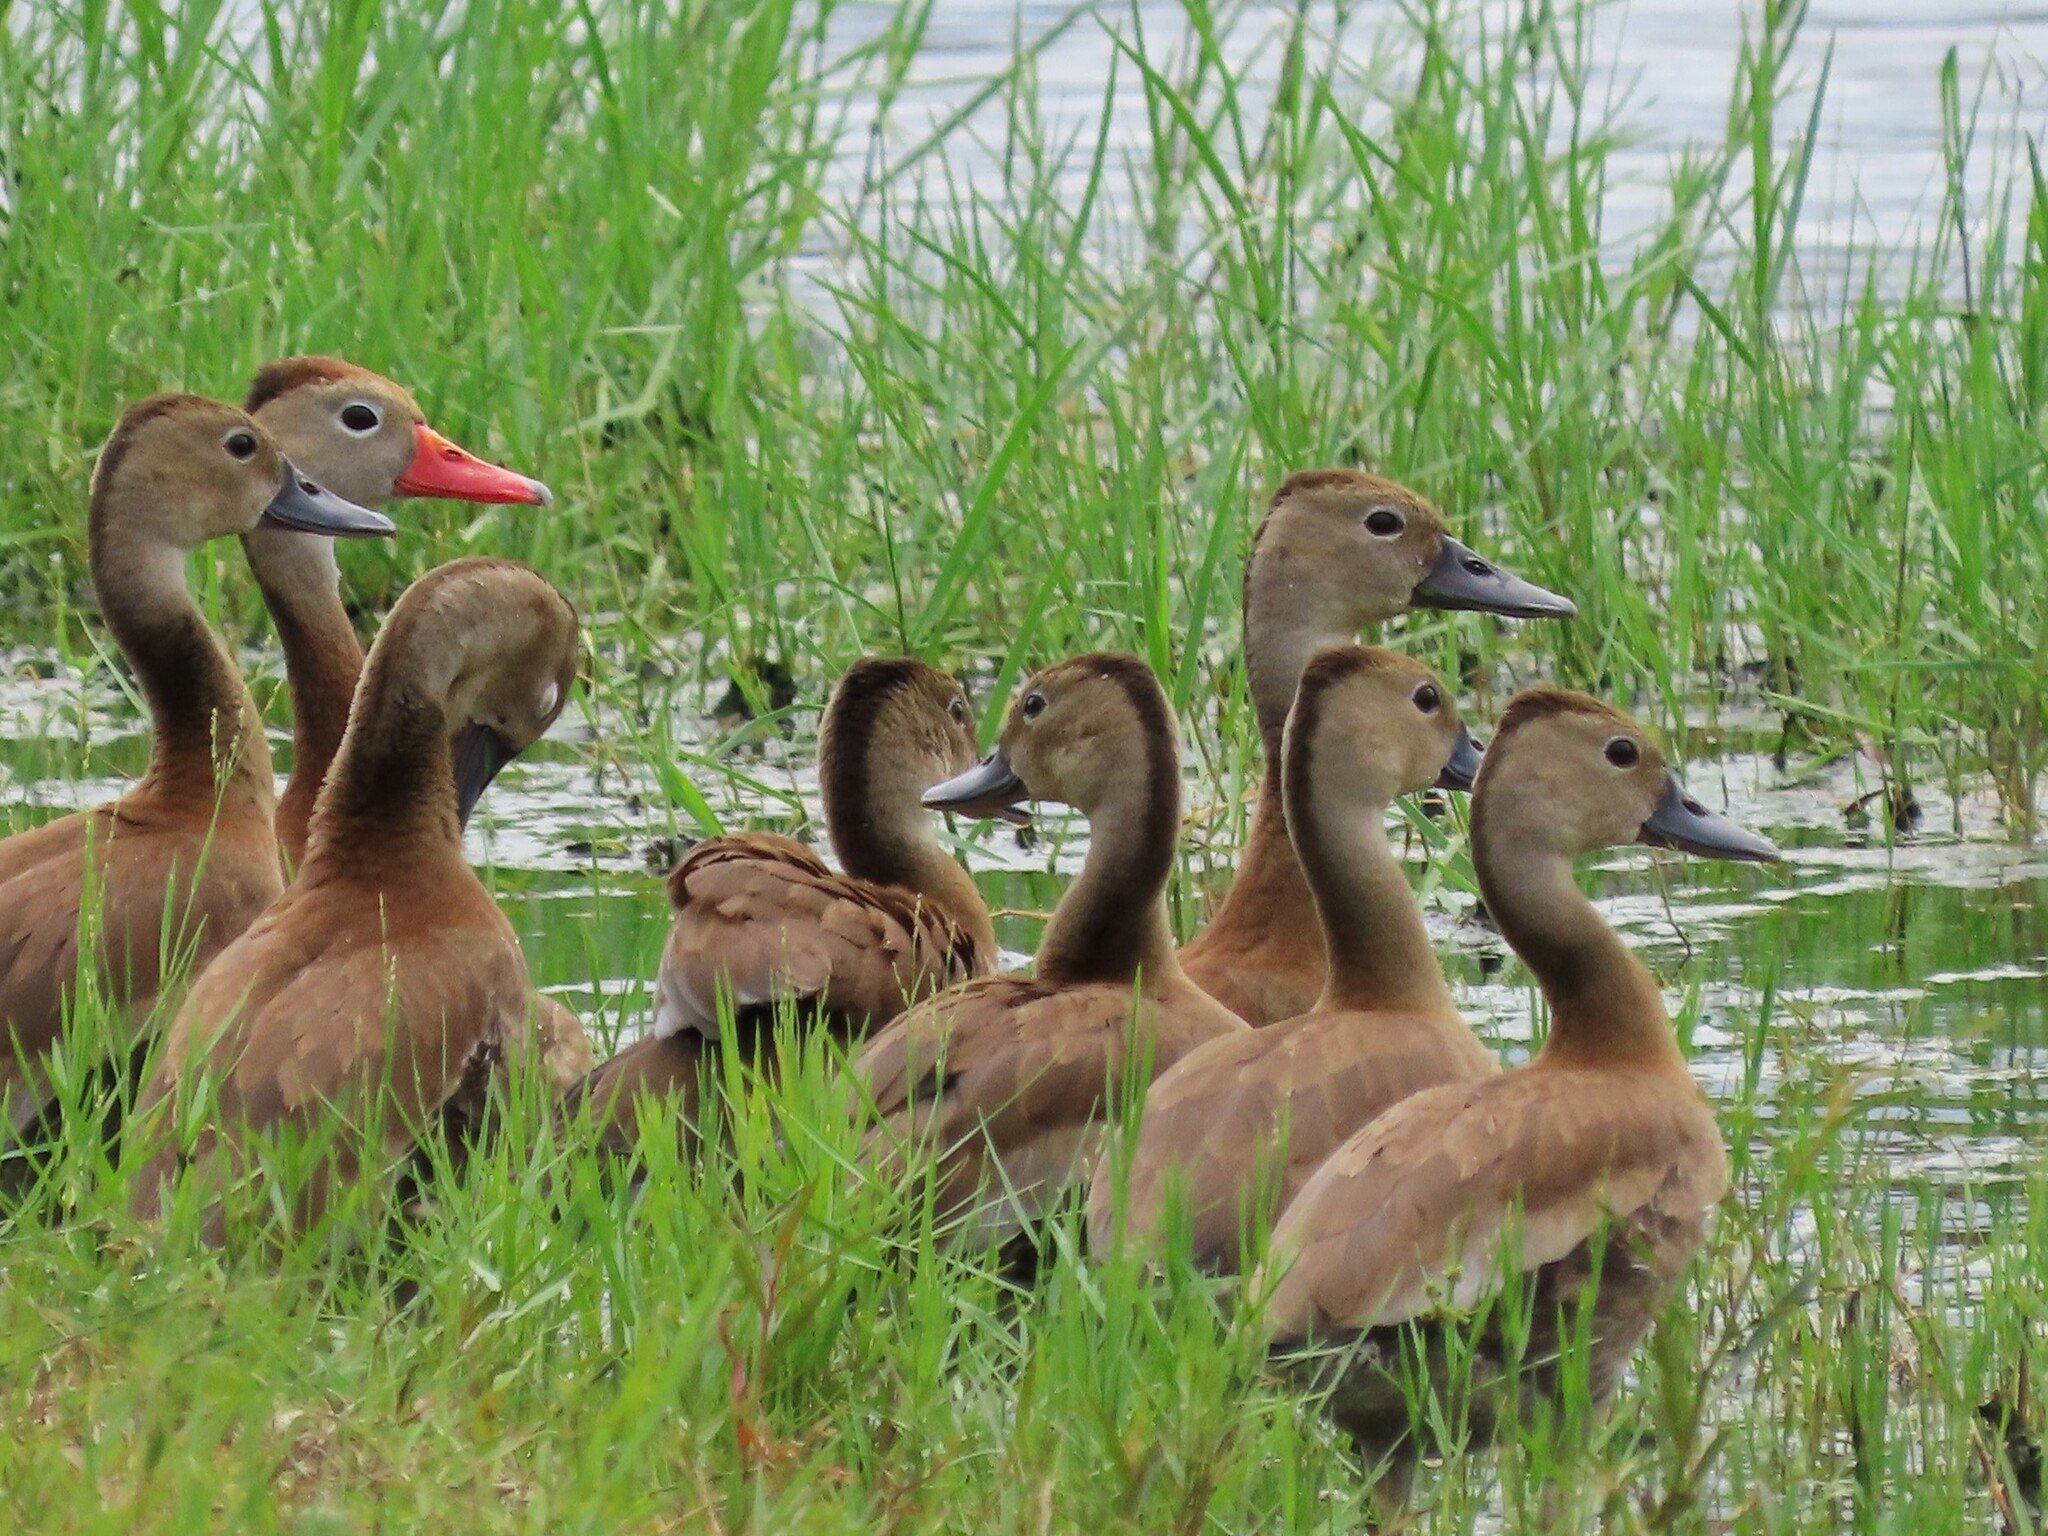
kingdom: Animalia
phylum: Chordata
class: Aves
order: Anseriformes
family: Anatidae
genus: Dendrocygna
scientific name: Dendrocygna autumnalis
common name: Black-bellied whistling duck
